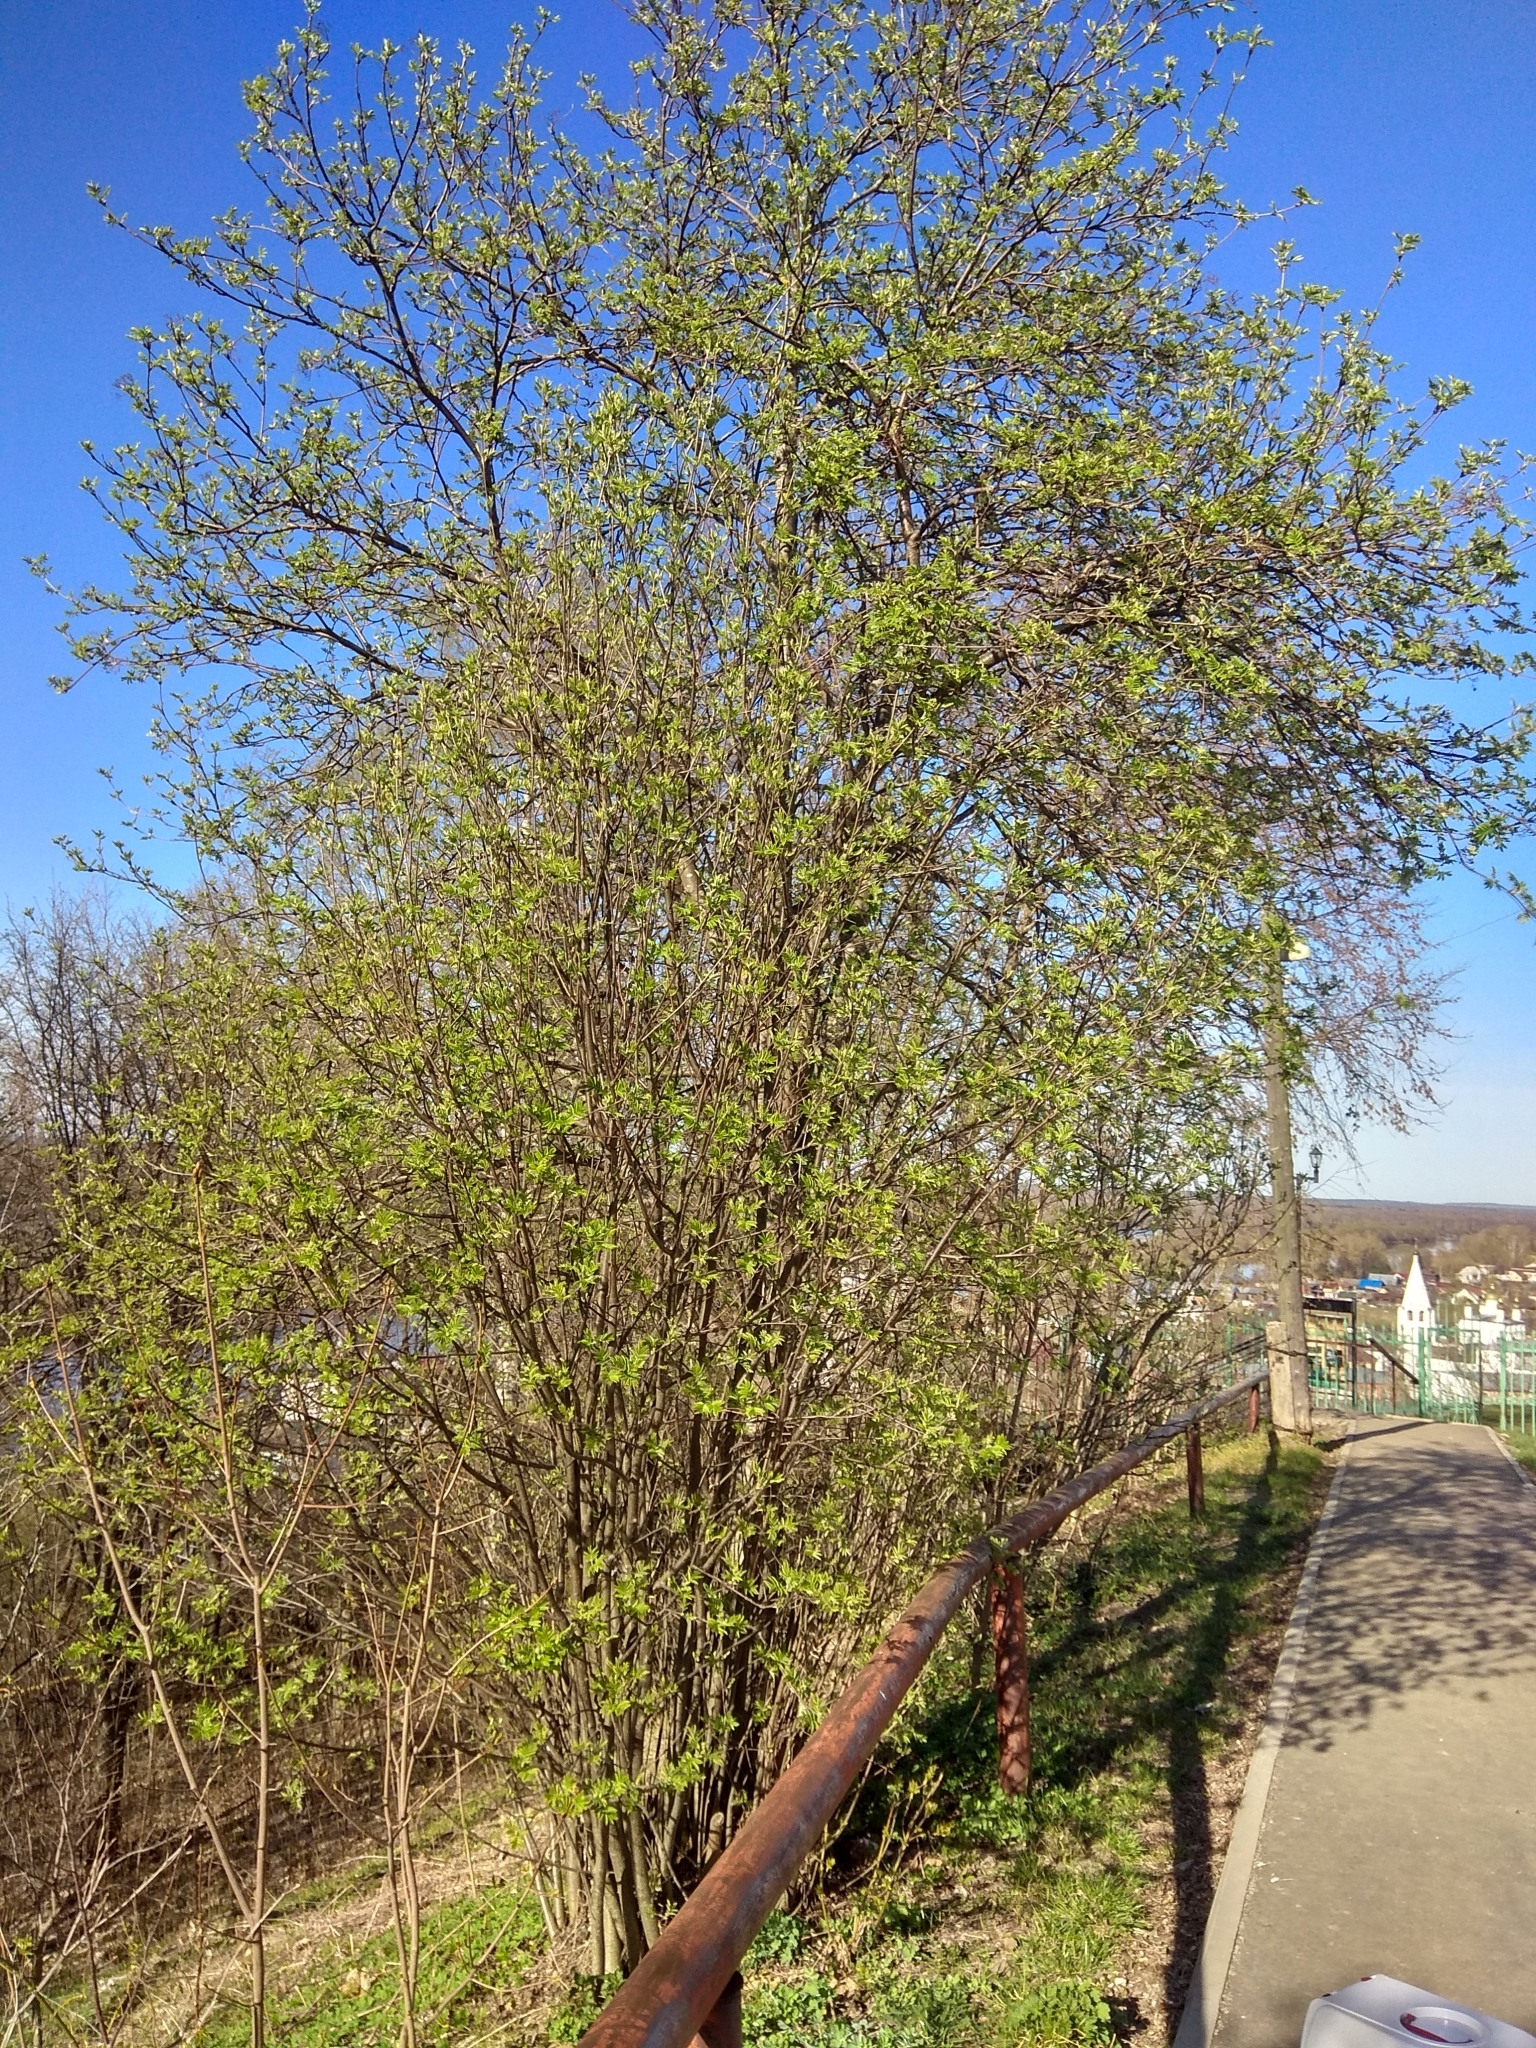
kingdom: Plantae
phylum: Tracheophyta
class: Magnoliopsida
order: Rosales
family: Rosaceae
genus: Sorbus
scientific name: Sorbus aucuparia
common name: Rowan
